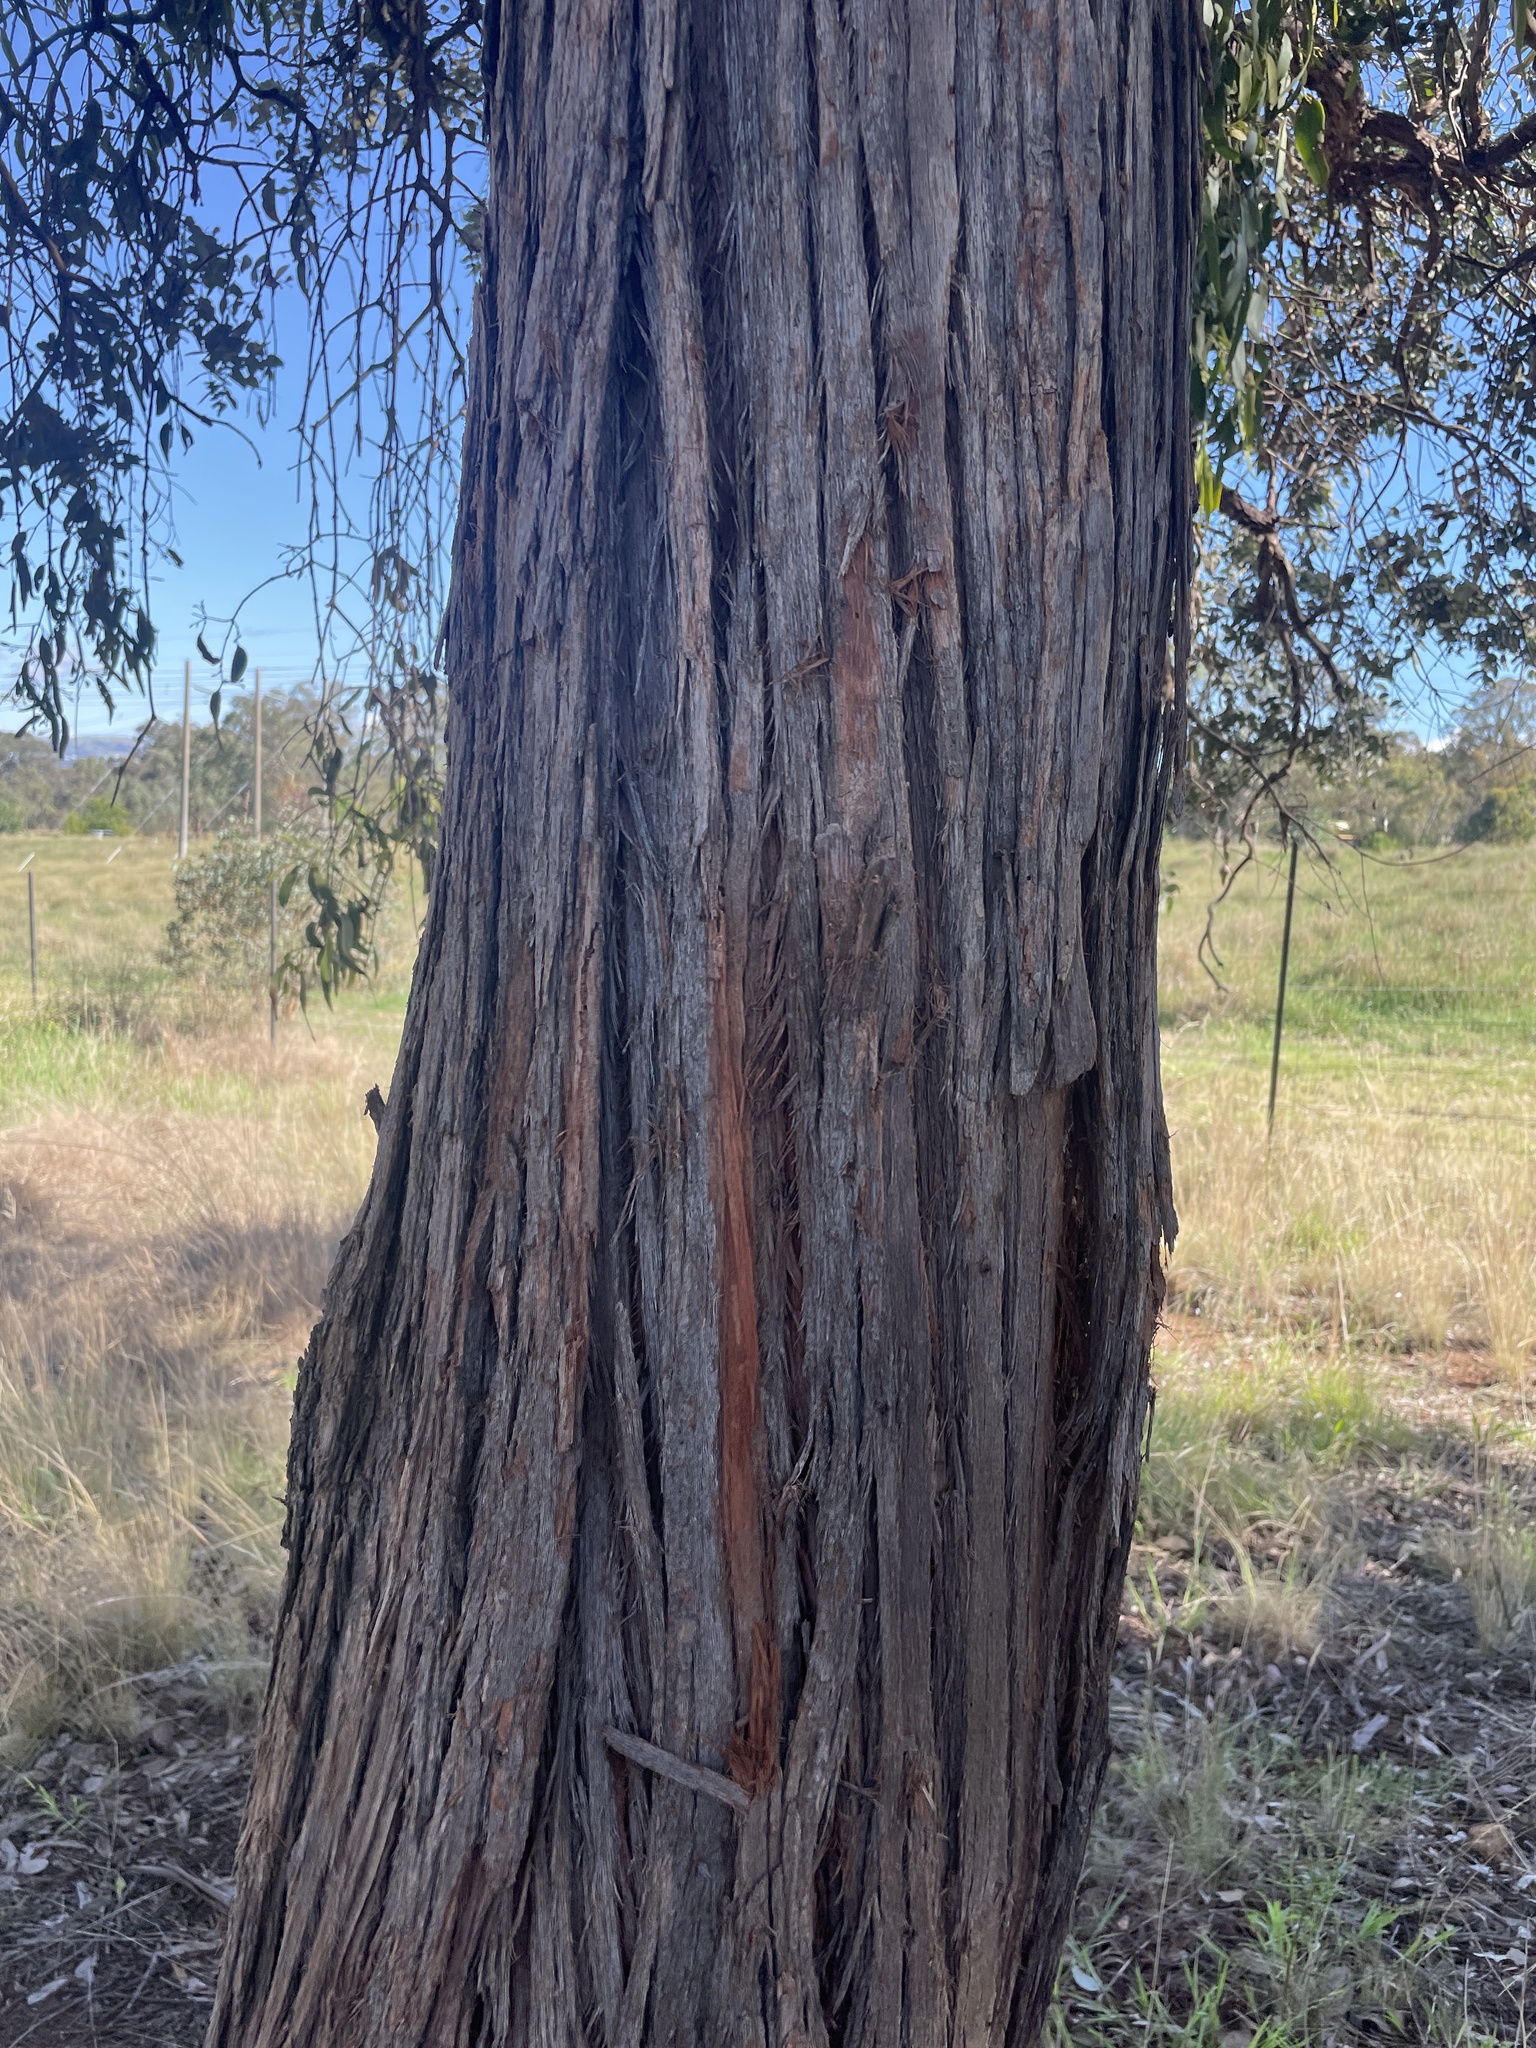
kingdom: Plantae
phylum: Tracheophyta
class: Magnoliopsida
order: Myrtales
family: Myrtaceae
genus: Eucalyptus
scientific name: Eucalyptus macrorhyncha
